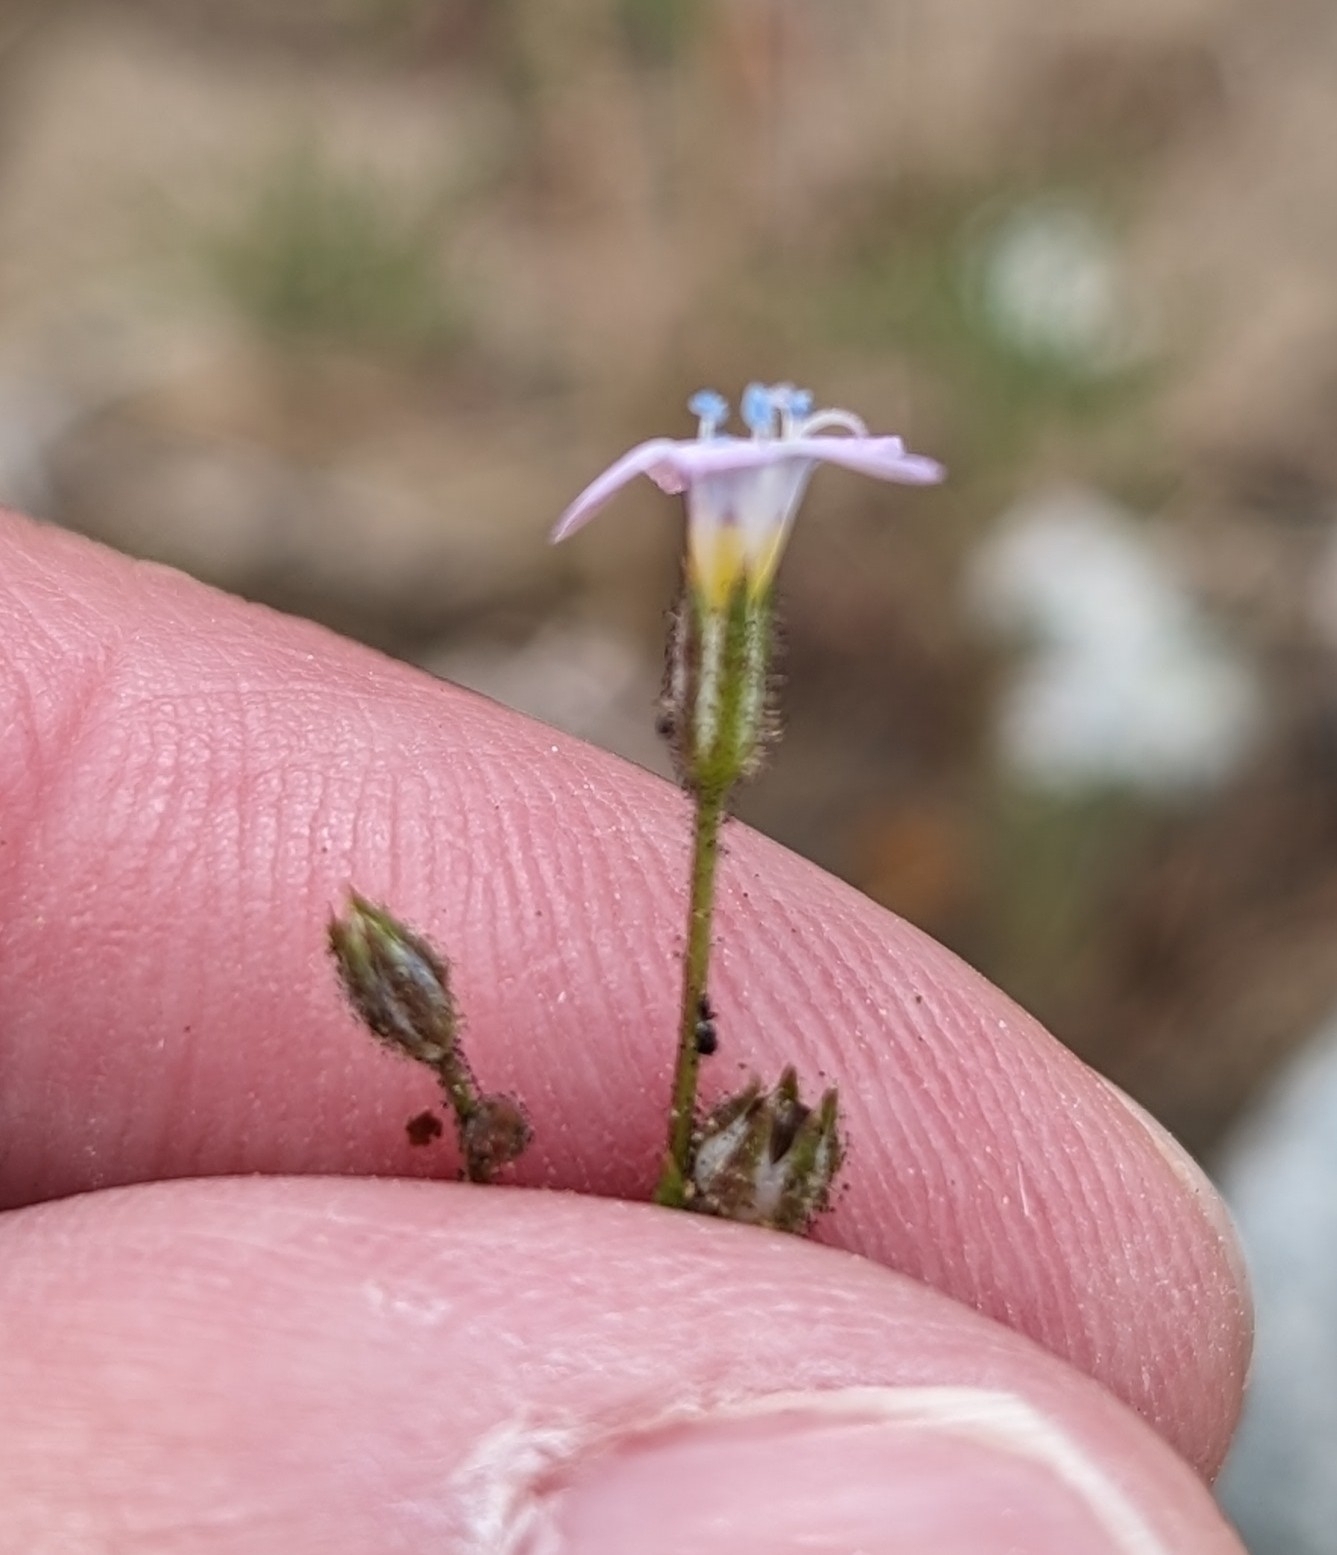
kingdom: Plantae
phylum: Tracheophyta
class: Magnoliopsida
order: Ericales
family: Polemoniaceae
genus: Gilia
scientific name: Gilia stellata
